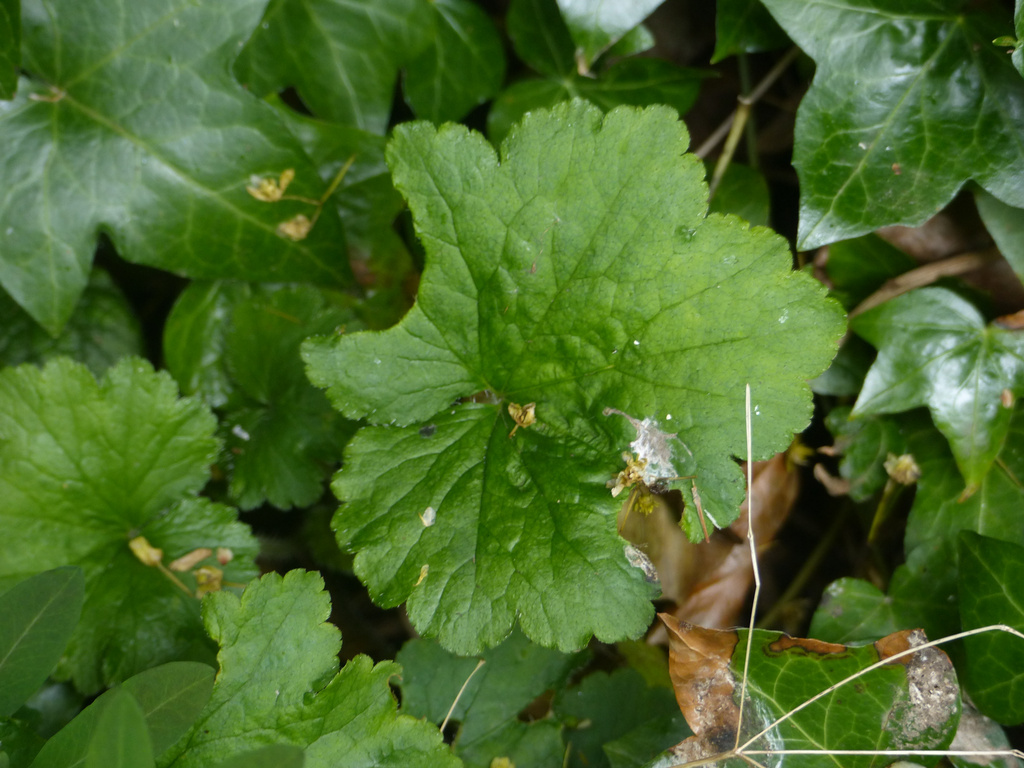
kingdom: Plantae
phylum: Tracheophyta
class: Magnoliopsida
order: Saxifragales
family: Saxifragaceae
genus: Tellima
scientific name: Tellima grandiflora
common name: Fringecups
